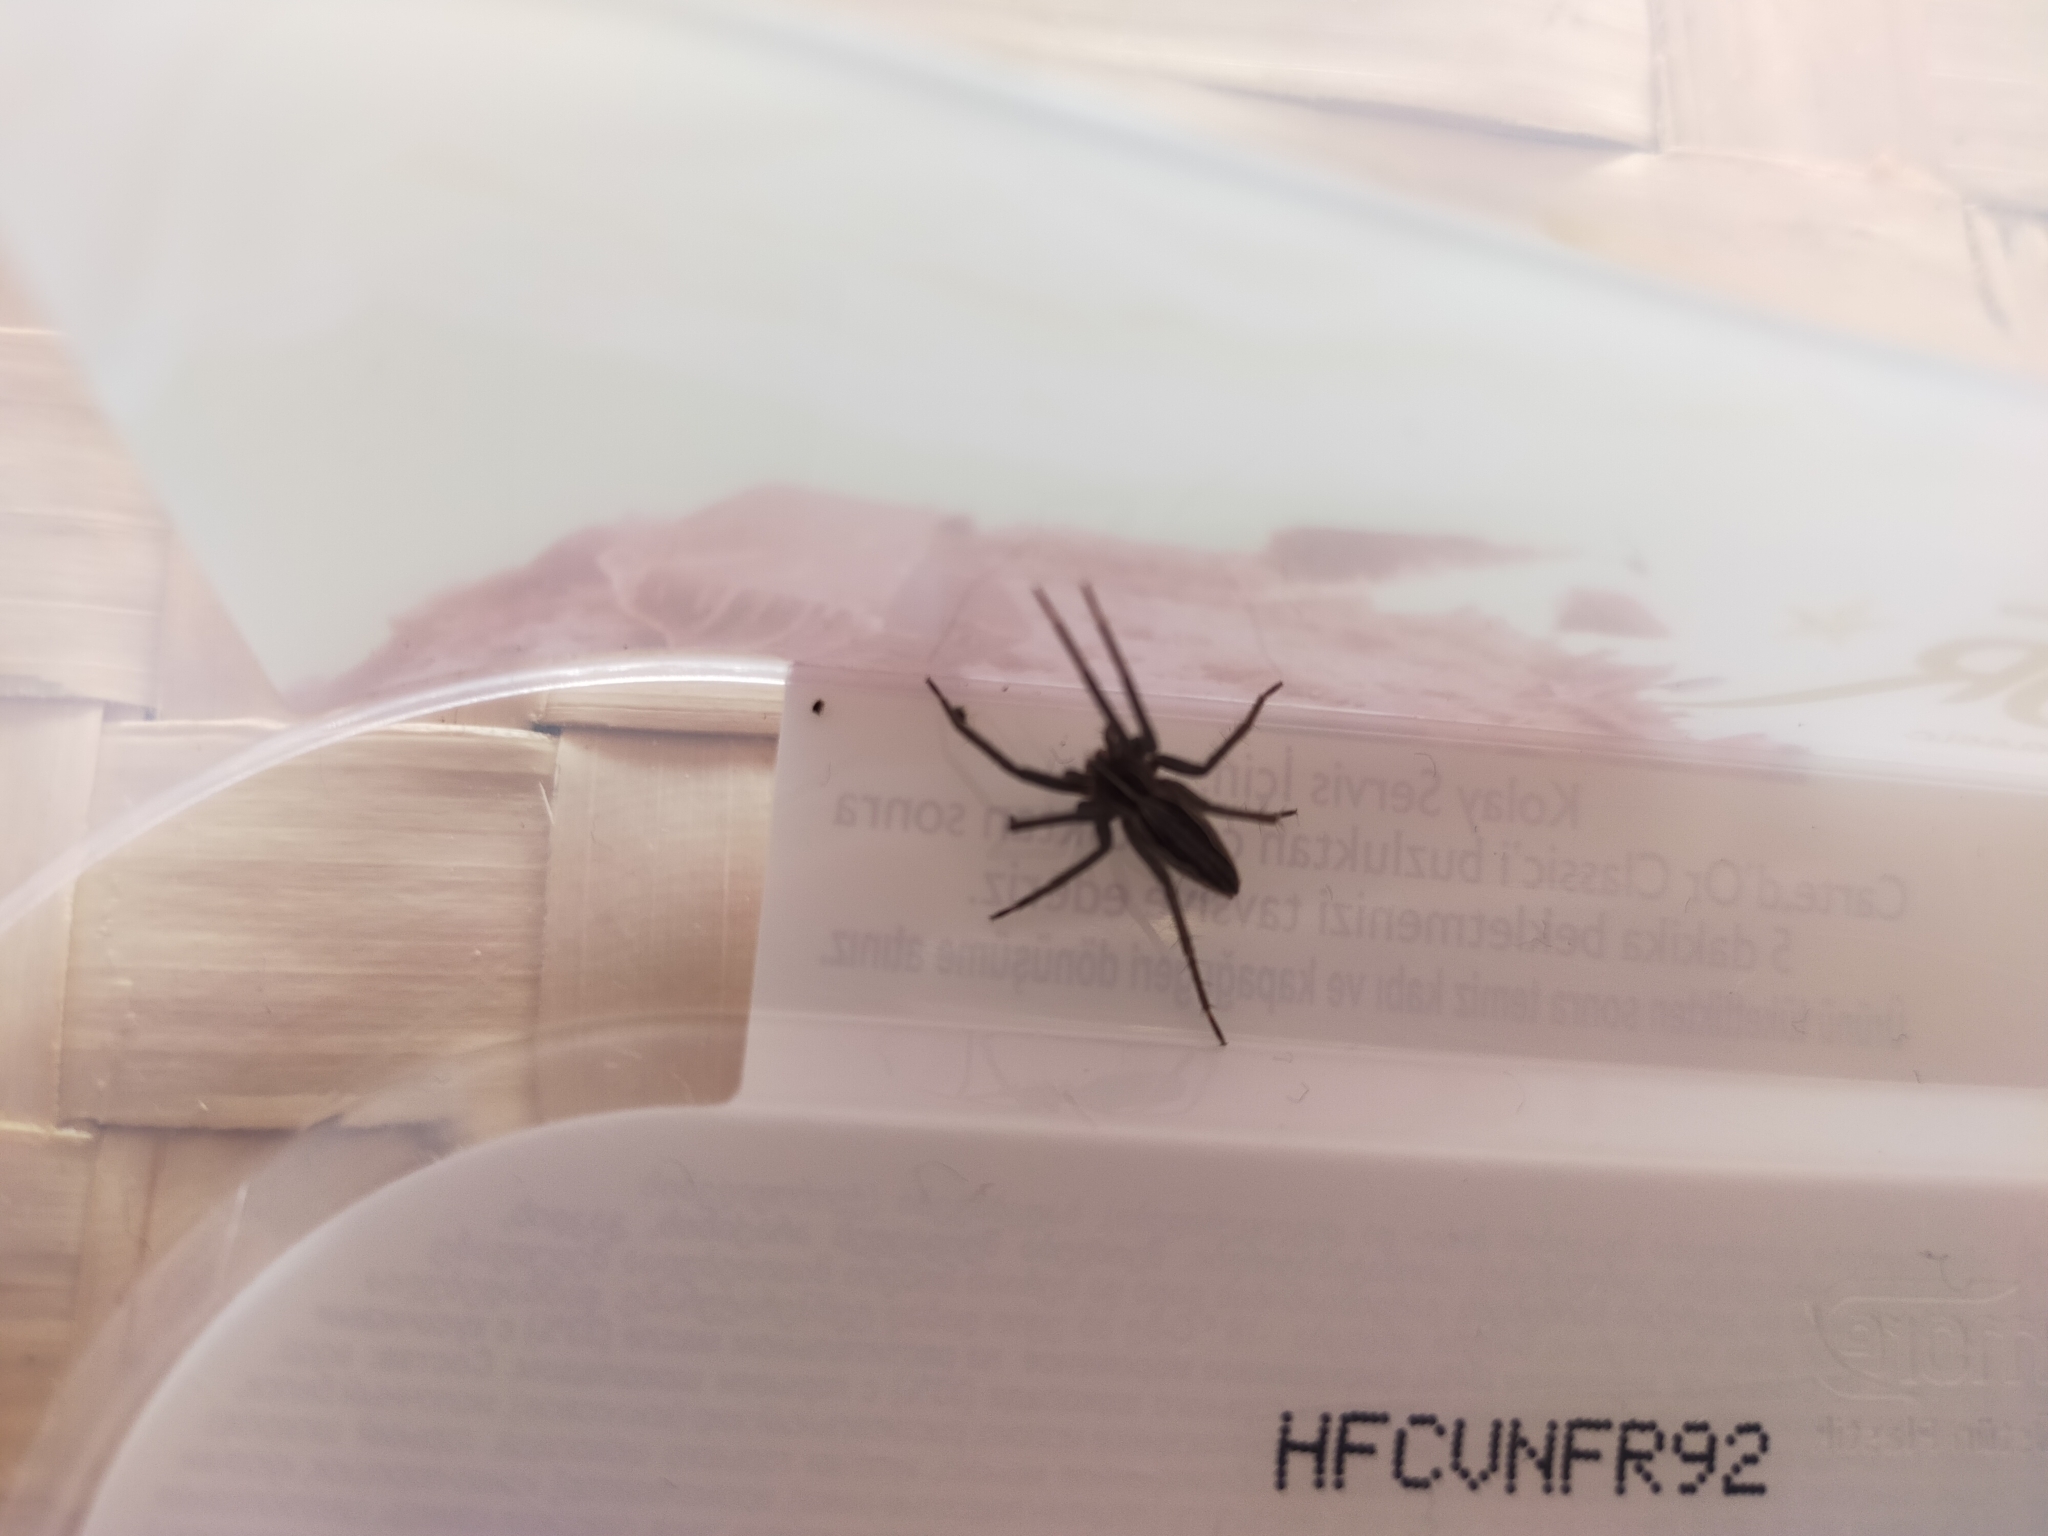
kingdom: Animalia
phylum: Arthropoda
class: Arachnida
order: Araneae
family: Pisauridae
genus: Pisaura
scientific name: Pisaura mirabilis
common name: Tent spider
